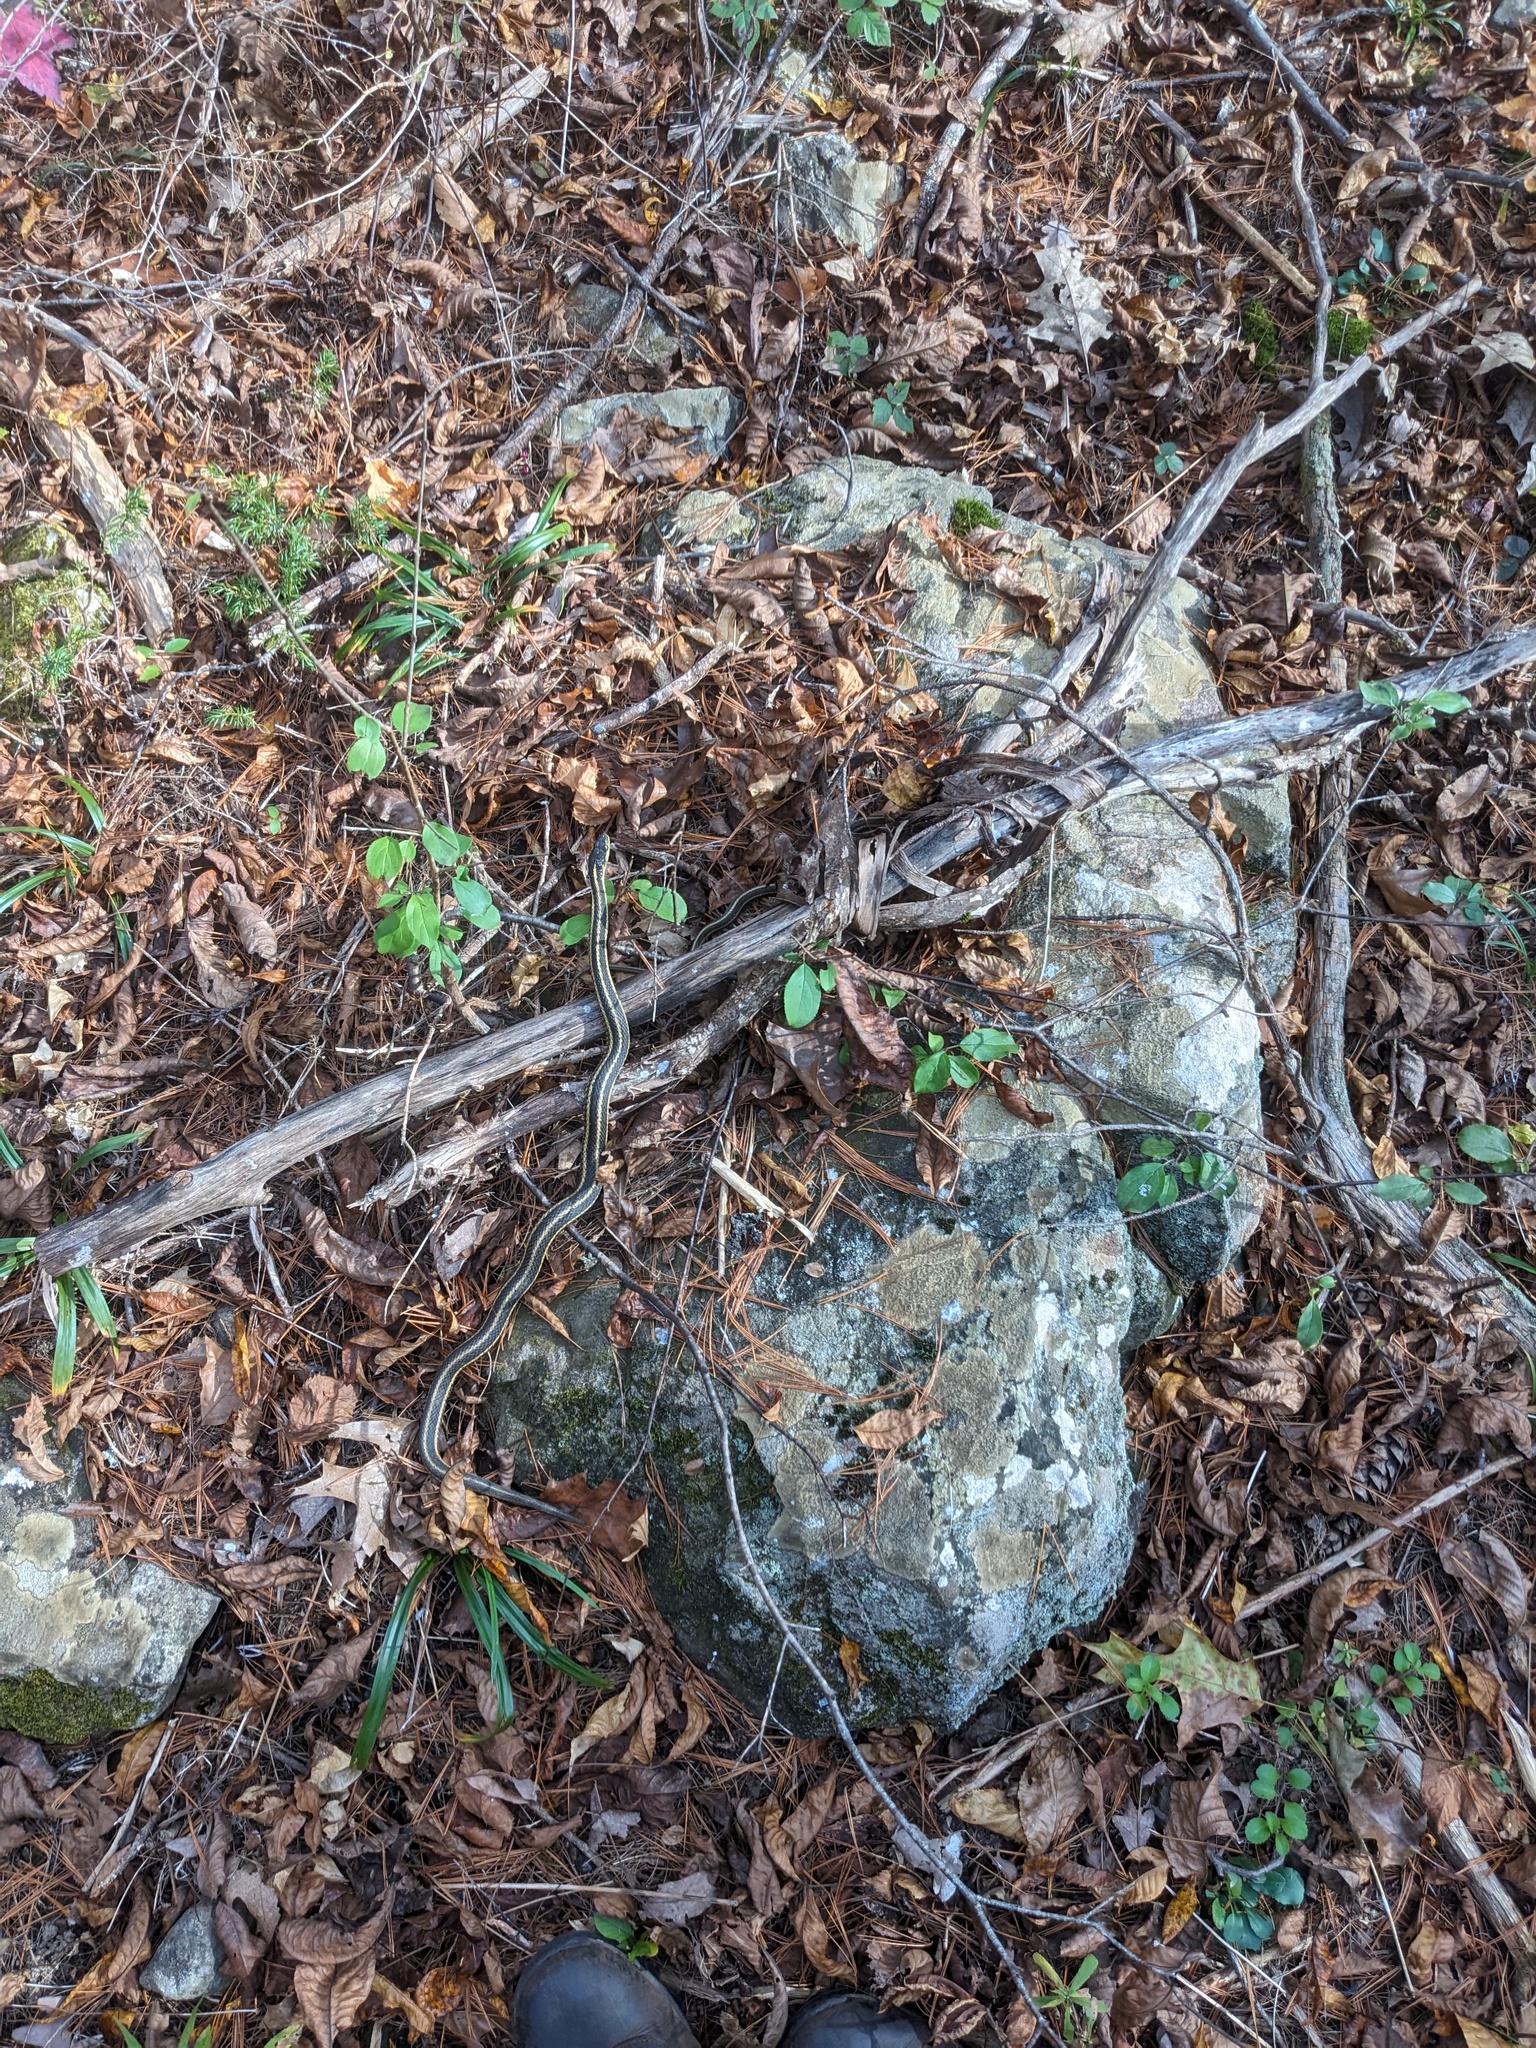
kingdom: Animalia
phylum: Chordata
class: Squamata
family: Colubridae
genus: Thamnophis
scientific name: Thamnophis sirtalis
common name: Common garter snake
